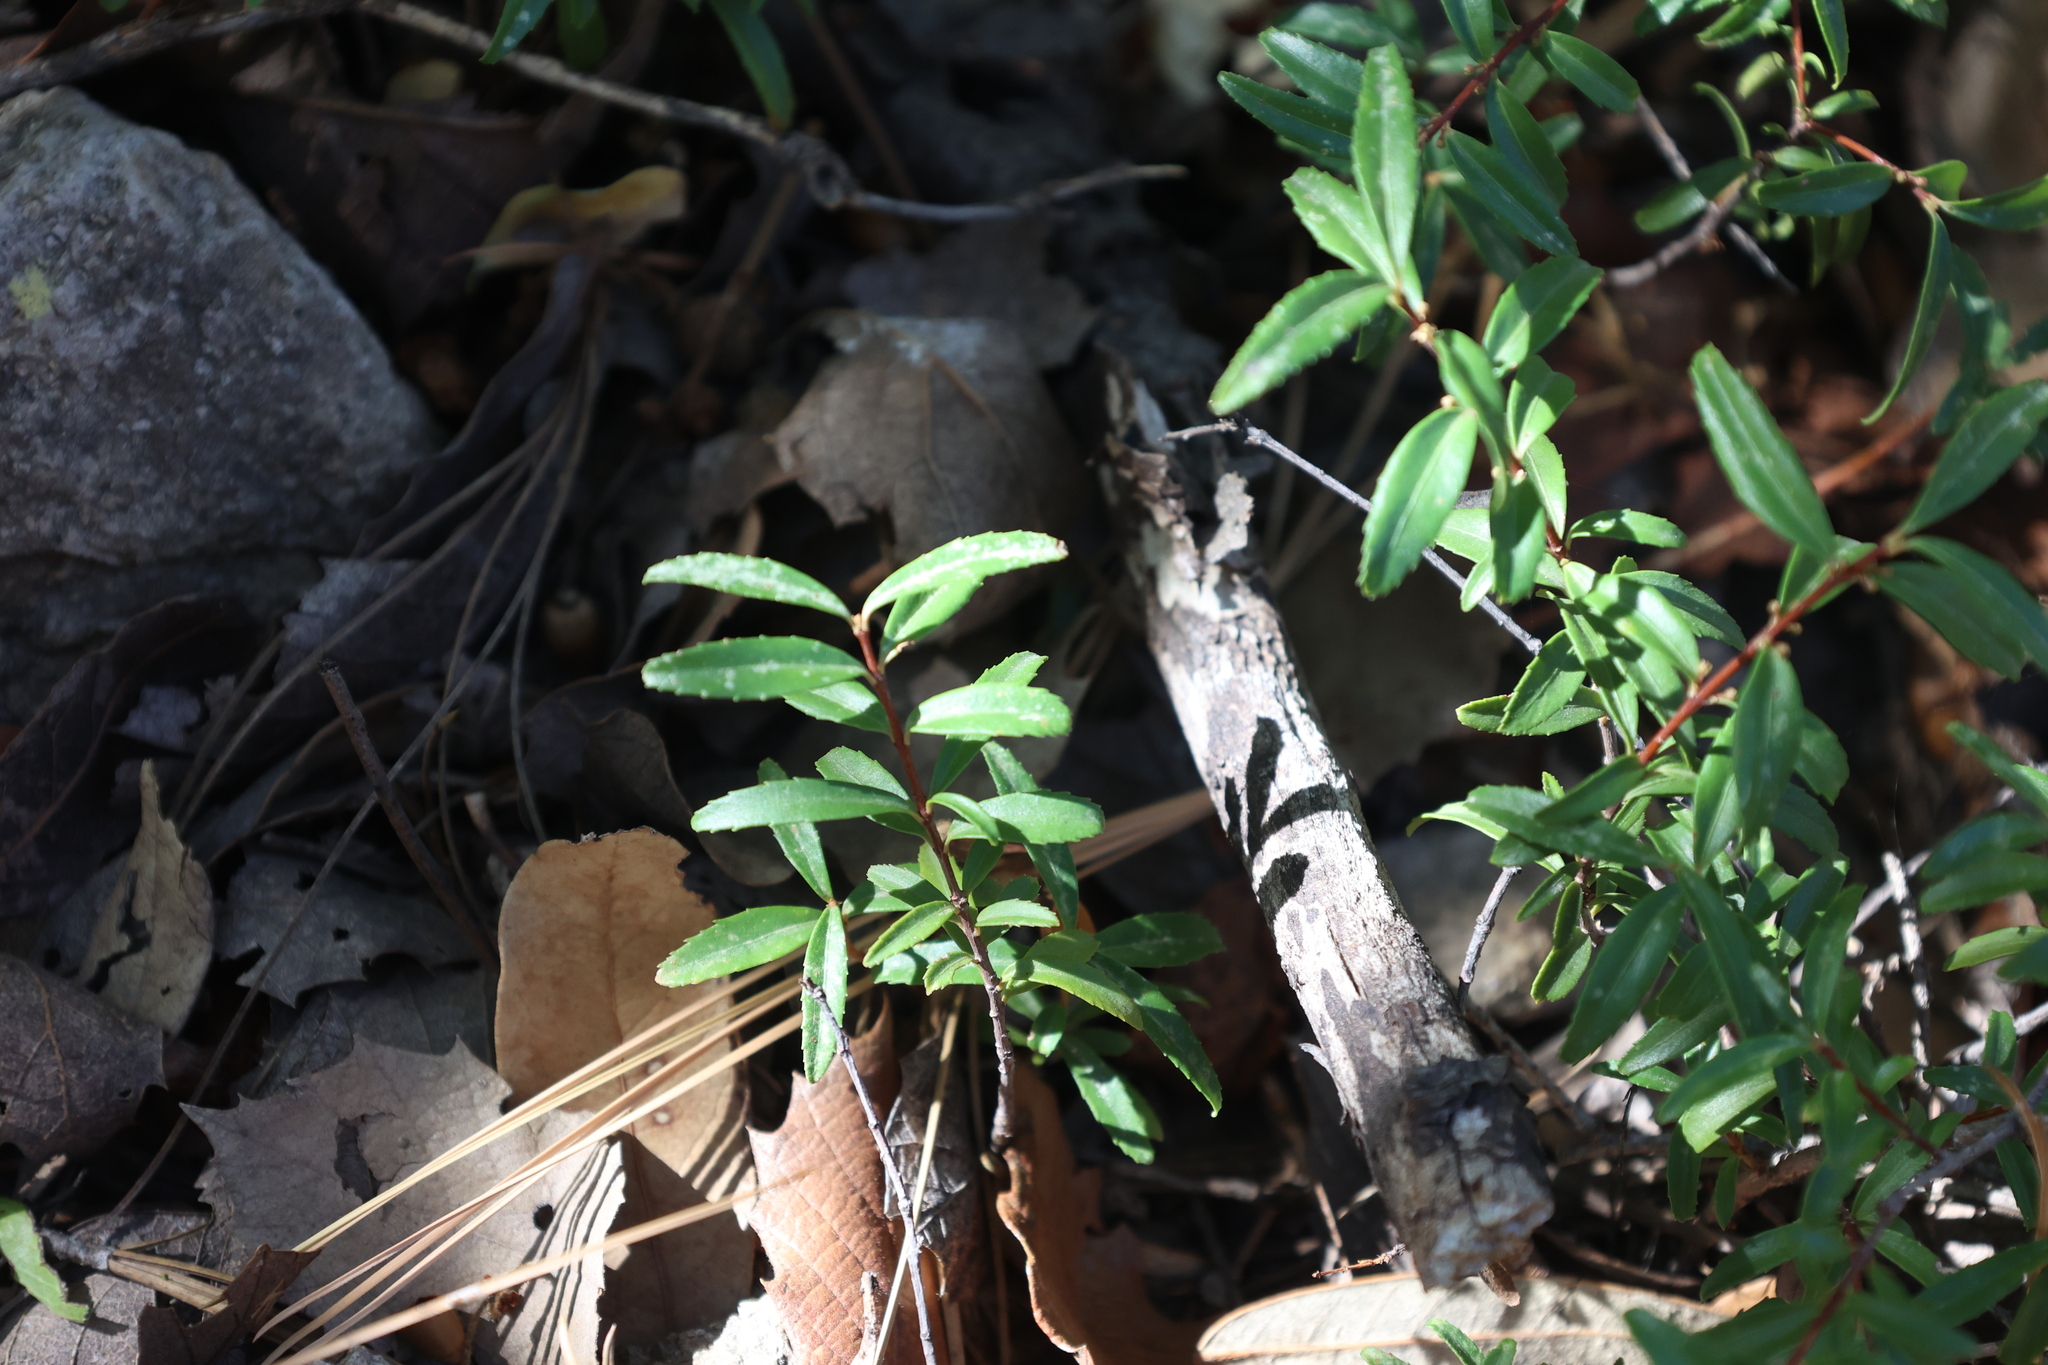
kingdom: Plantae
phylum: Tracheophyta
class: Magnoliopsida
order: Celastrales
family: Celastraceae
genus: Paxistima
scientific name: Paxistima myrsinites
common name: Mountain-lover
